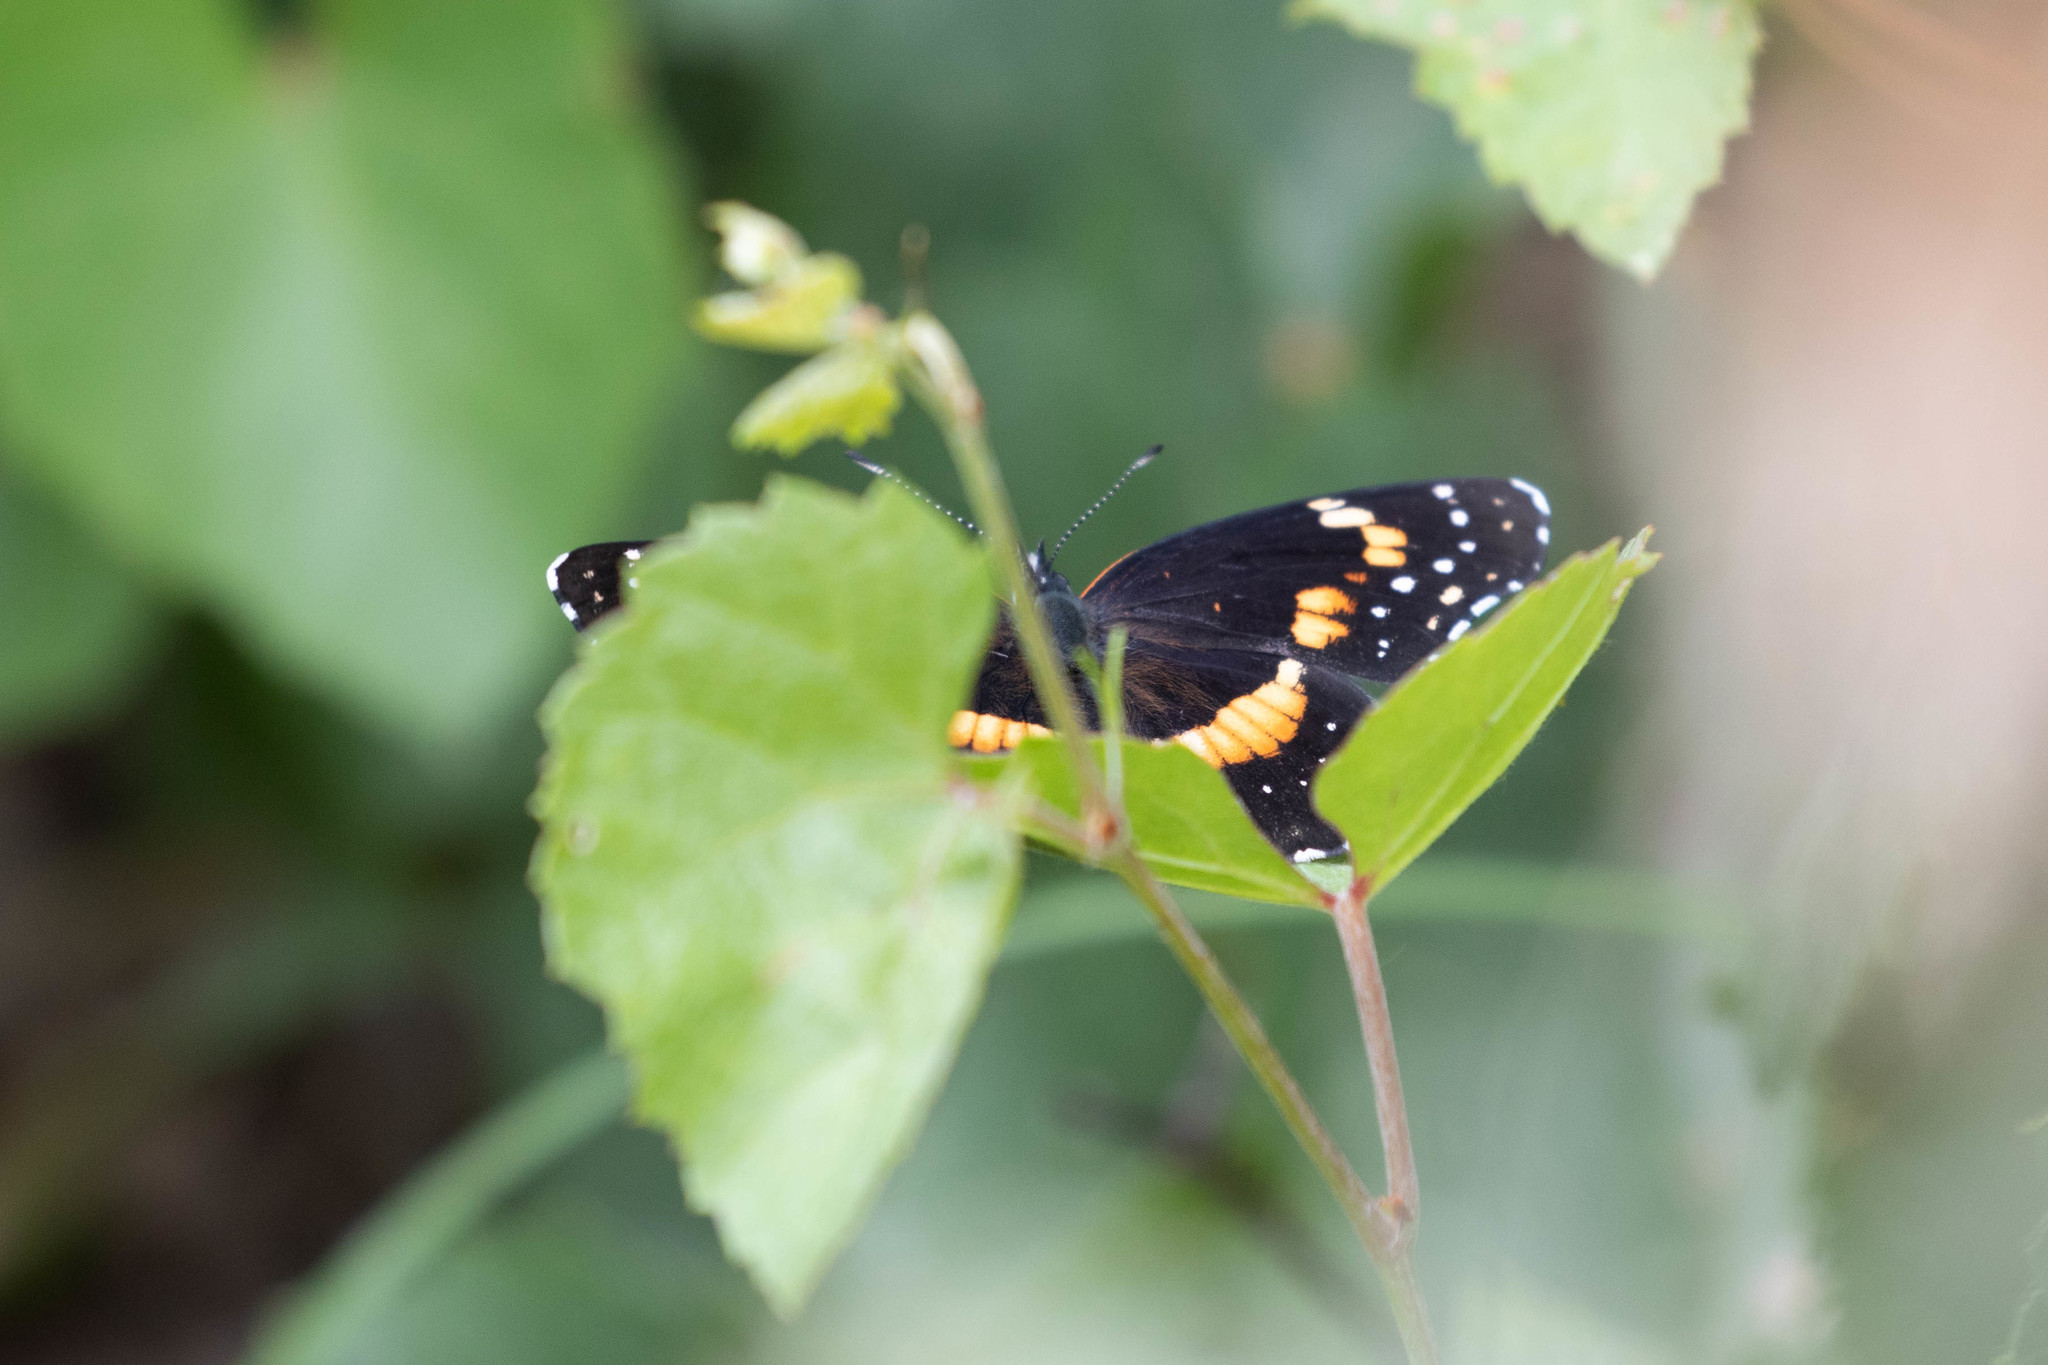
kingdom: Animalia
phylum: Arthropoda
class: Insecta
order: Lepidoptera
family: Nymphalidae
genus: Chlosyne
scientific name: Chlosyne lacinia
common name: Bordered patch
